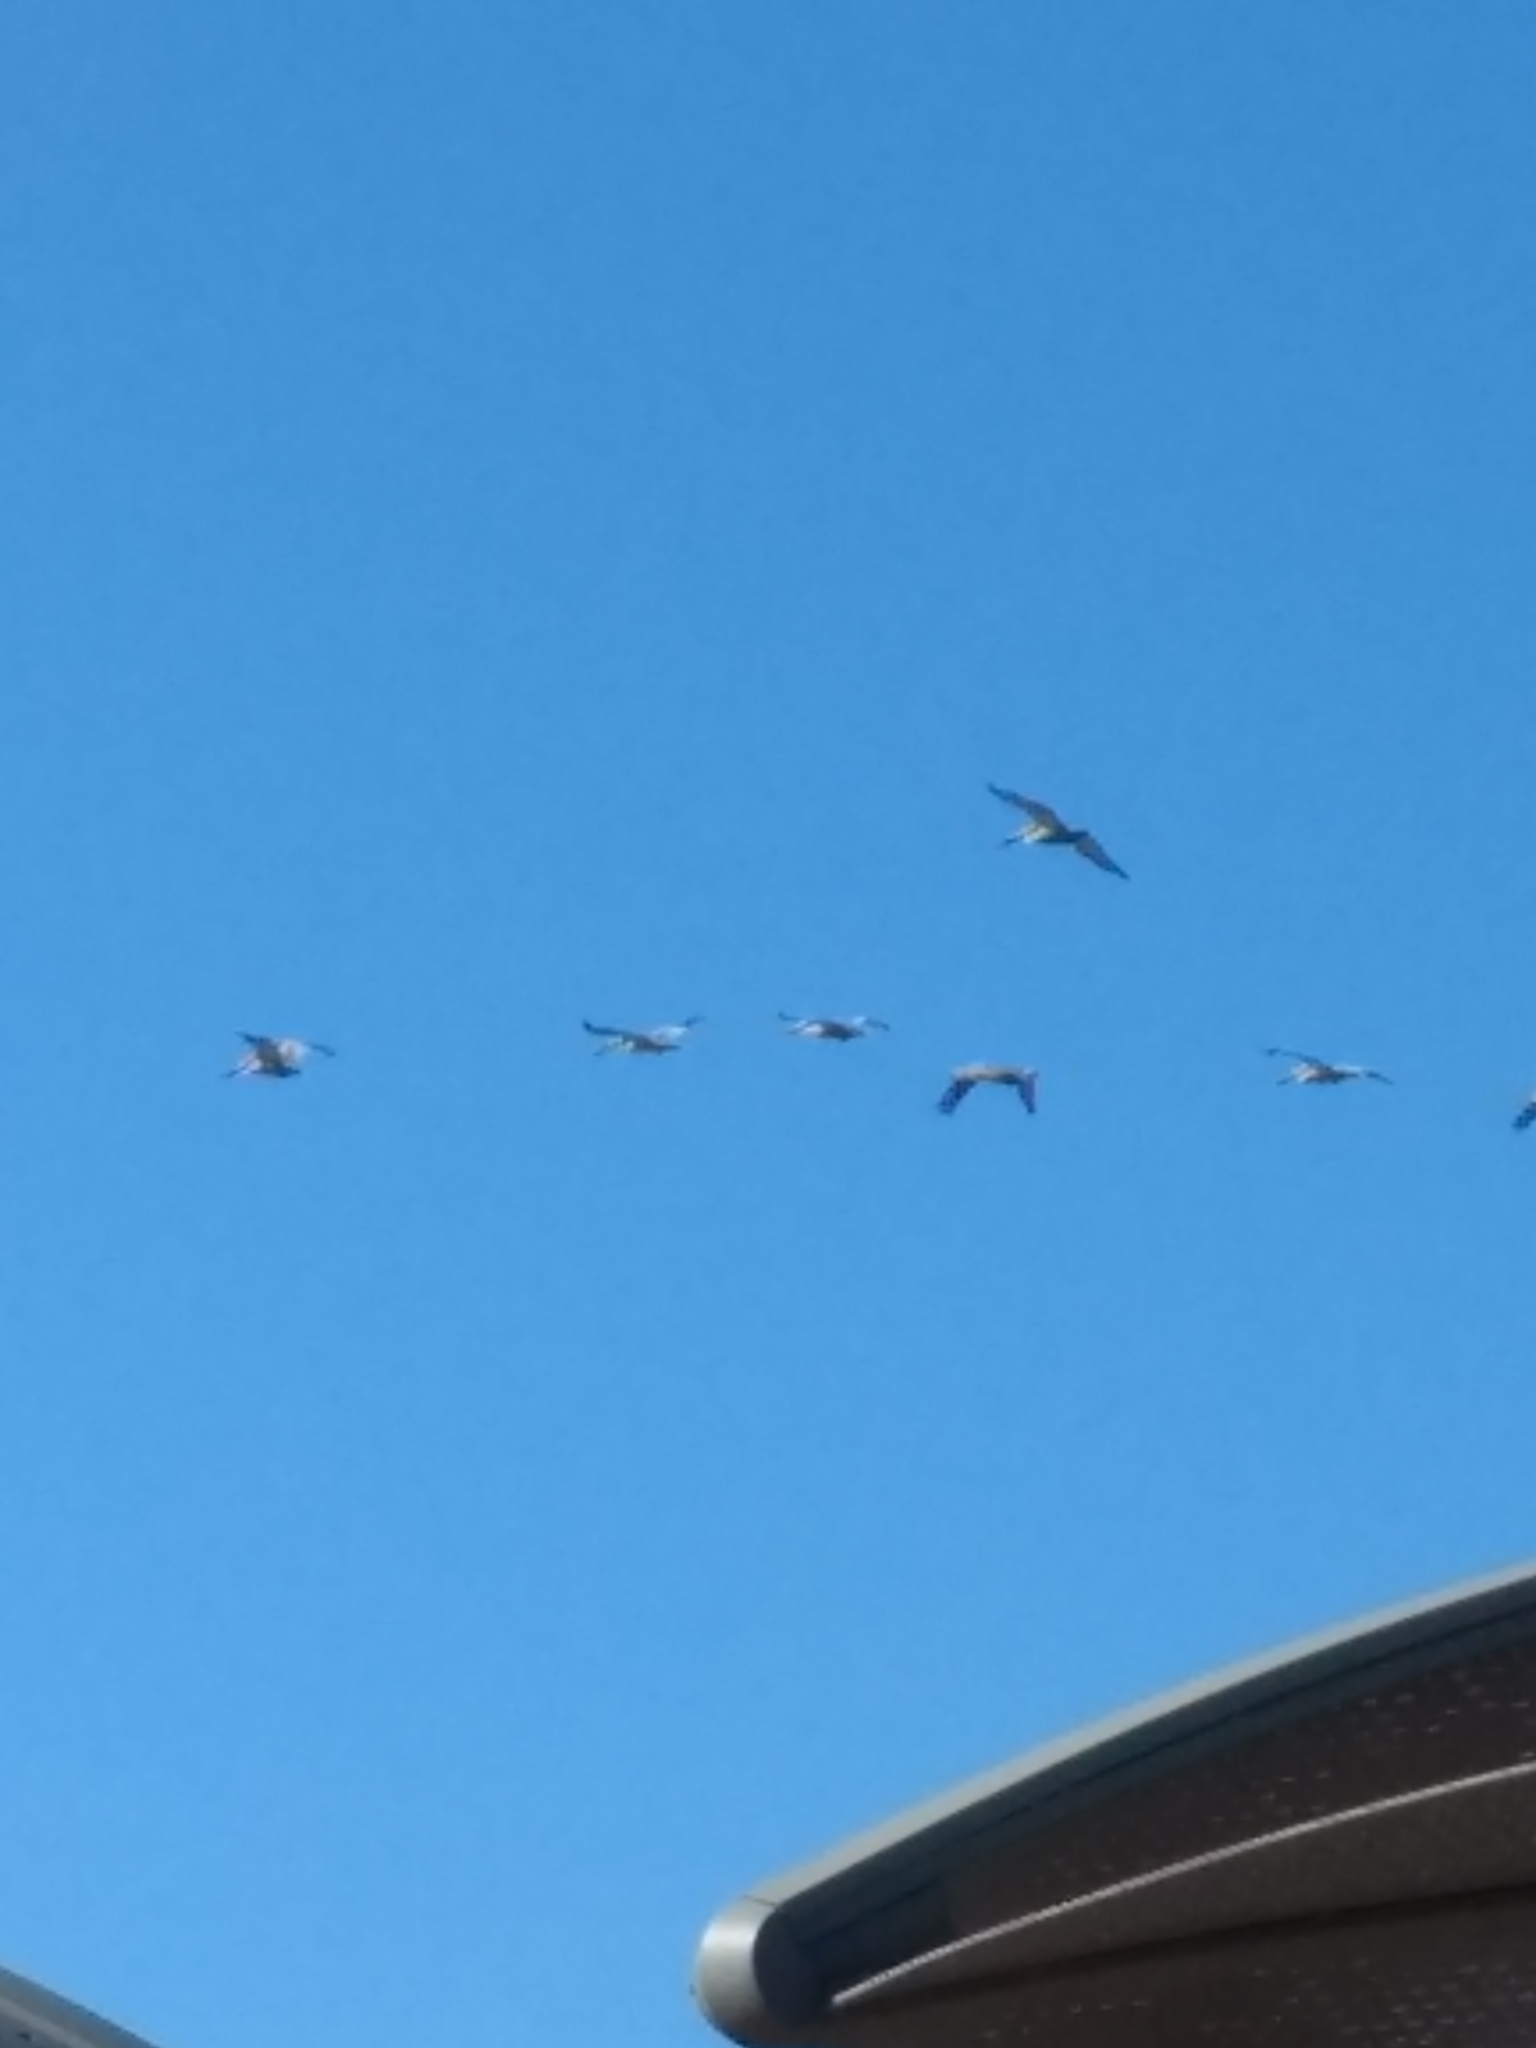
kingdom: Animalia
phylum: Chordata
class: Aves
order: Pelecaniformes
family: Pelecanidae
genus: Pelecanus
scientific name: Pelecanus occidentalis
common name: Brown pelican
